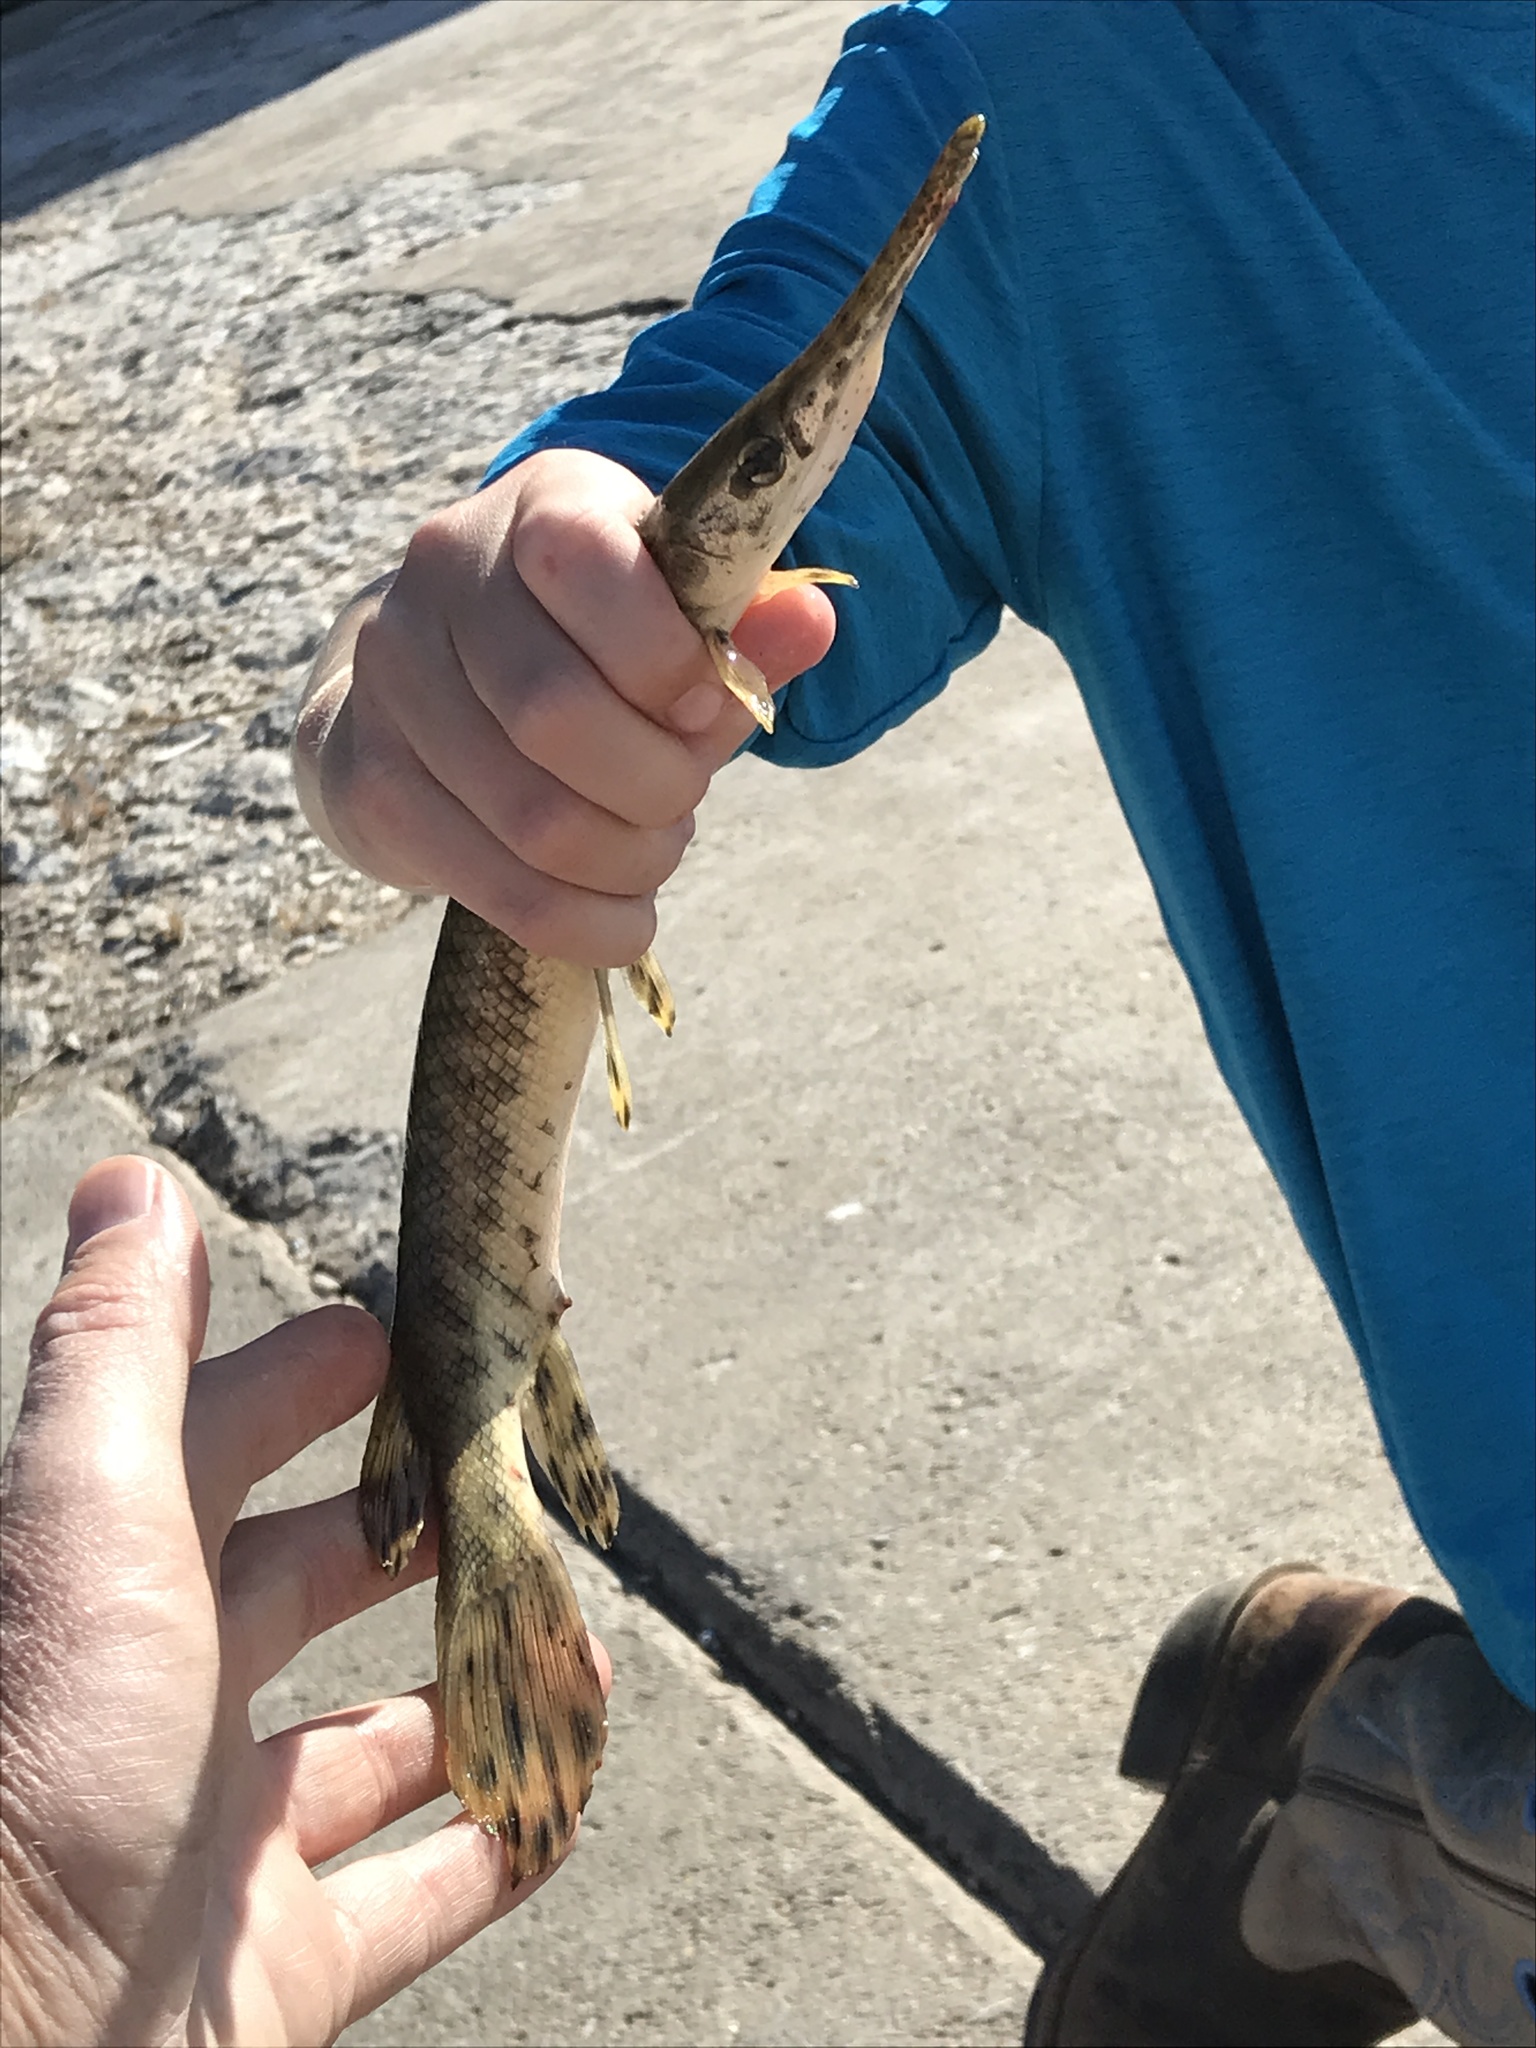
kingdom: Animalia
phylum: Chordata
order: Lepisosteiformes
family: Lepisosteidae
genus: Lepisosteus
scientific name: Lepisosteus oculatus
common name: Spotted gar
